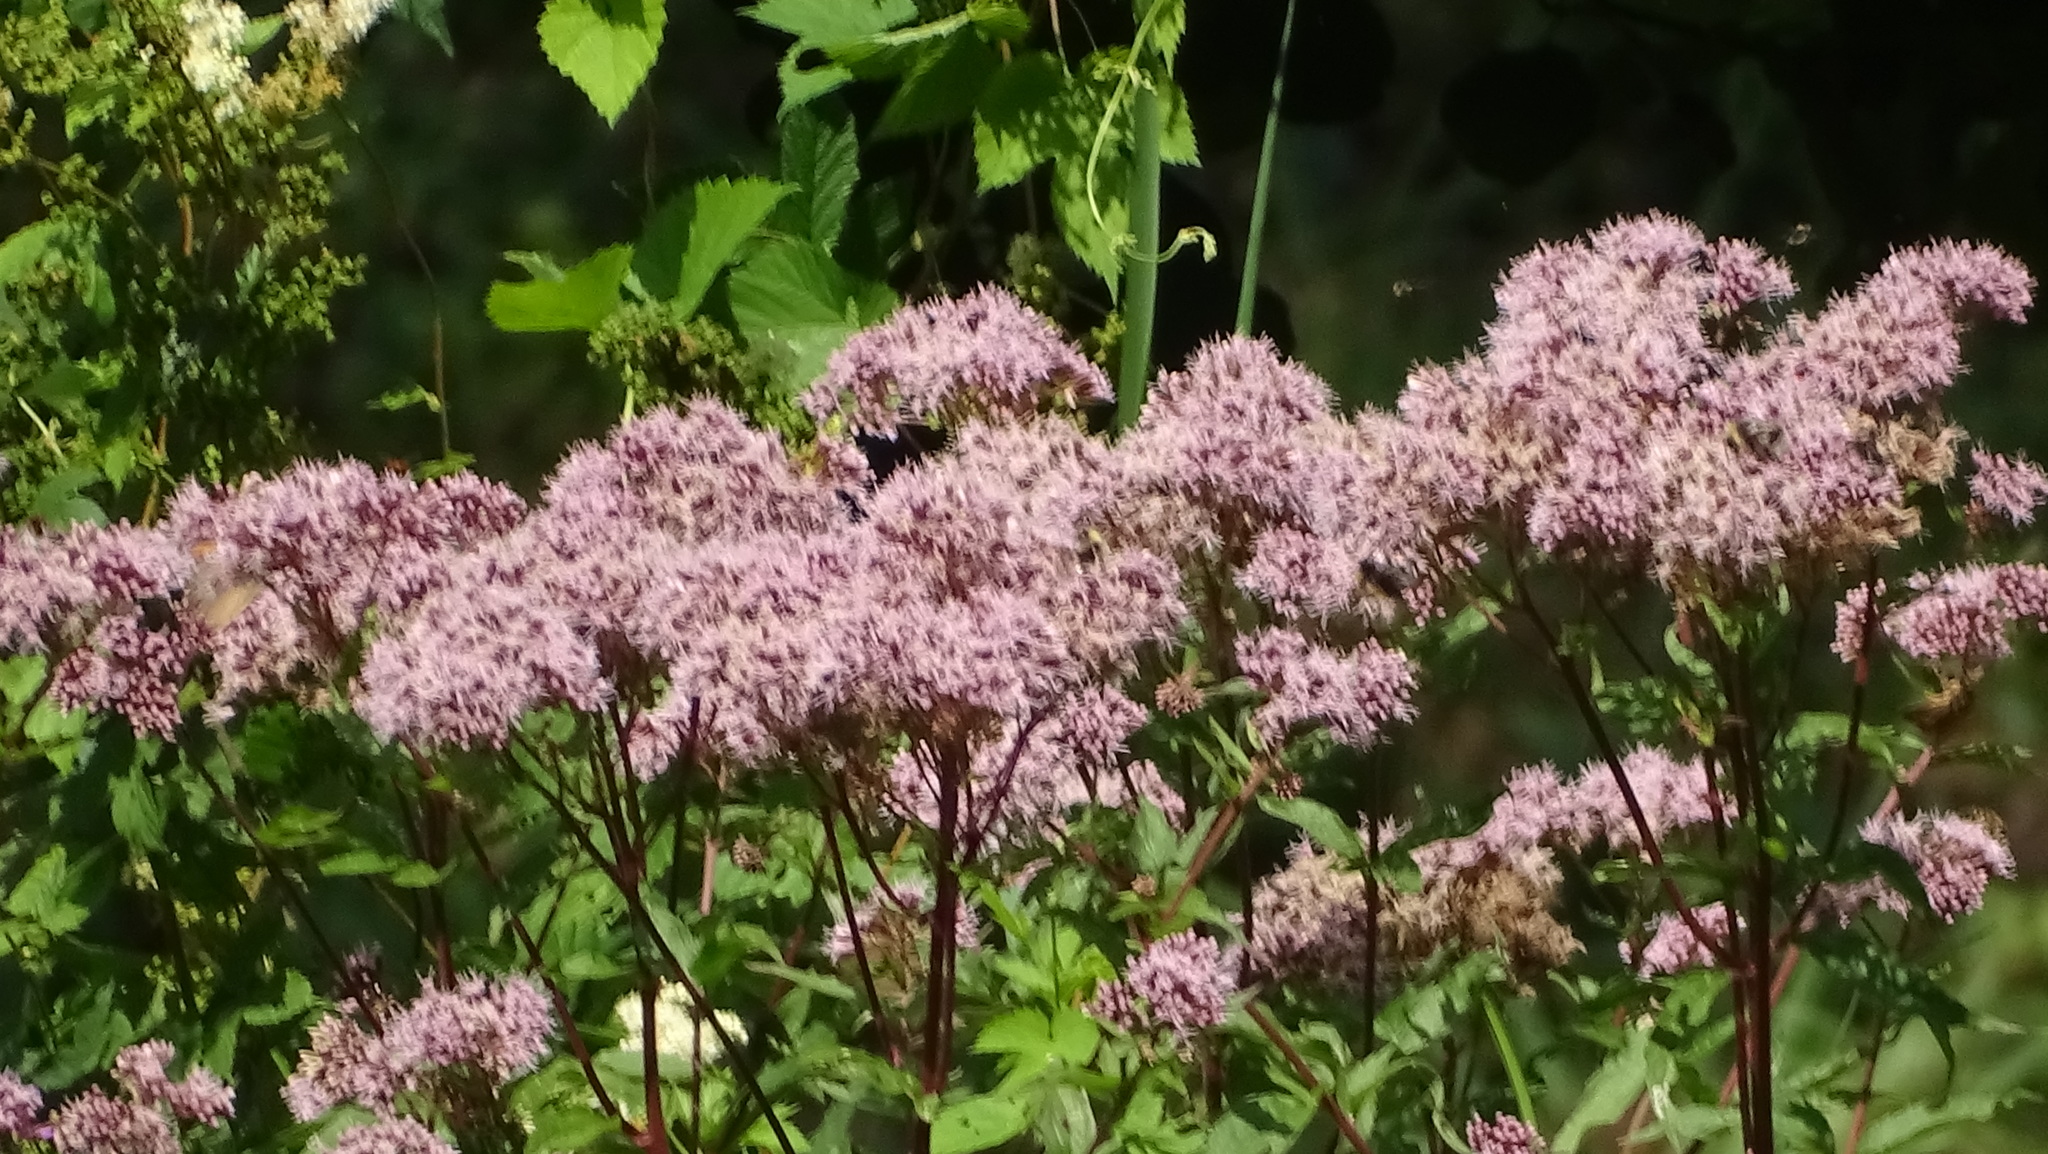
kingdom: Plantae
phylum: Tracheophyta
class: Magnoliopsida
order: Asterales
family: Asteraceae
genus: Eupatorium
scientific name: Eupatorium cannabinum
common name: Hemp-agrimony
